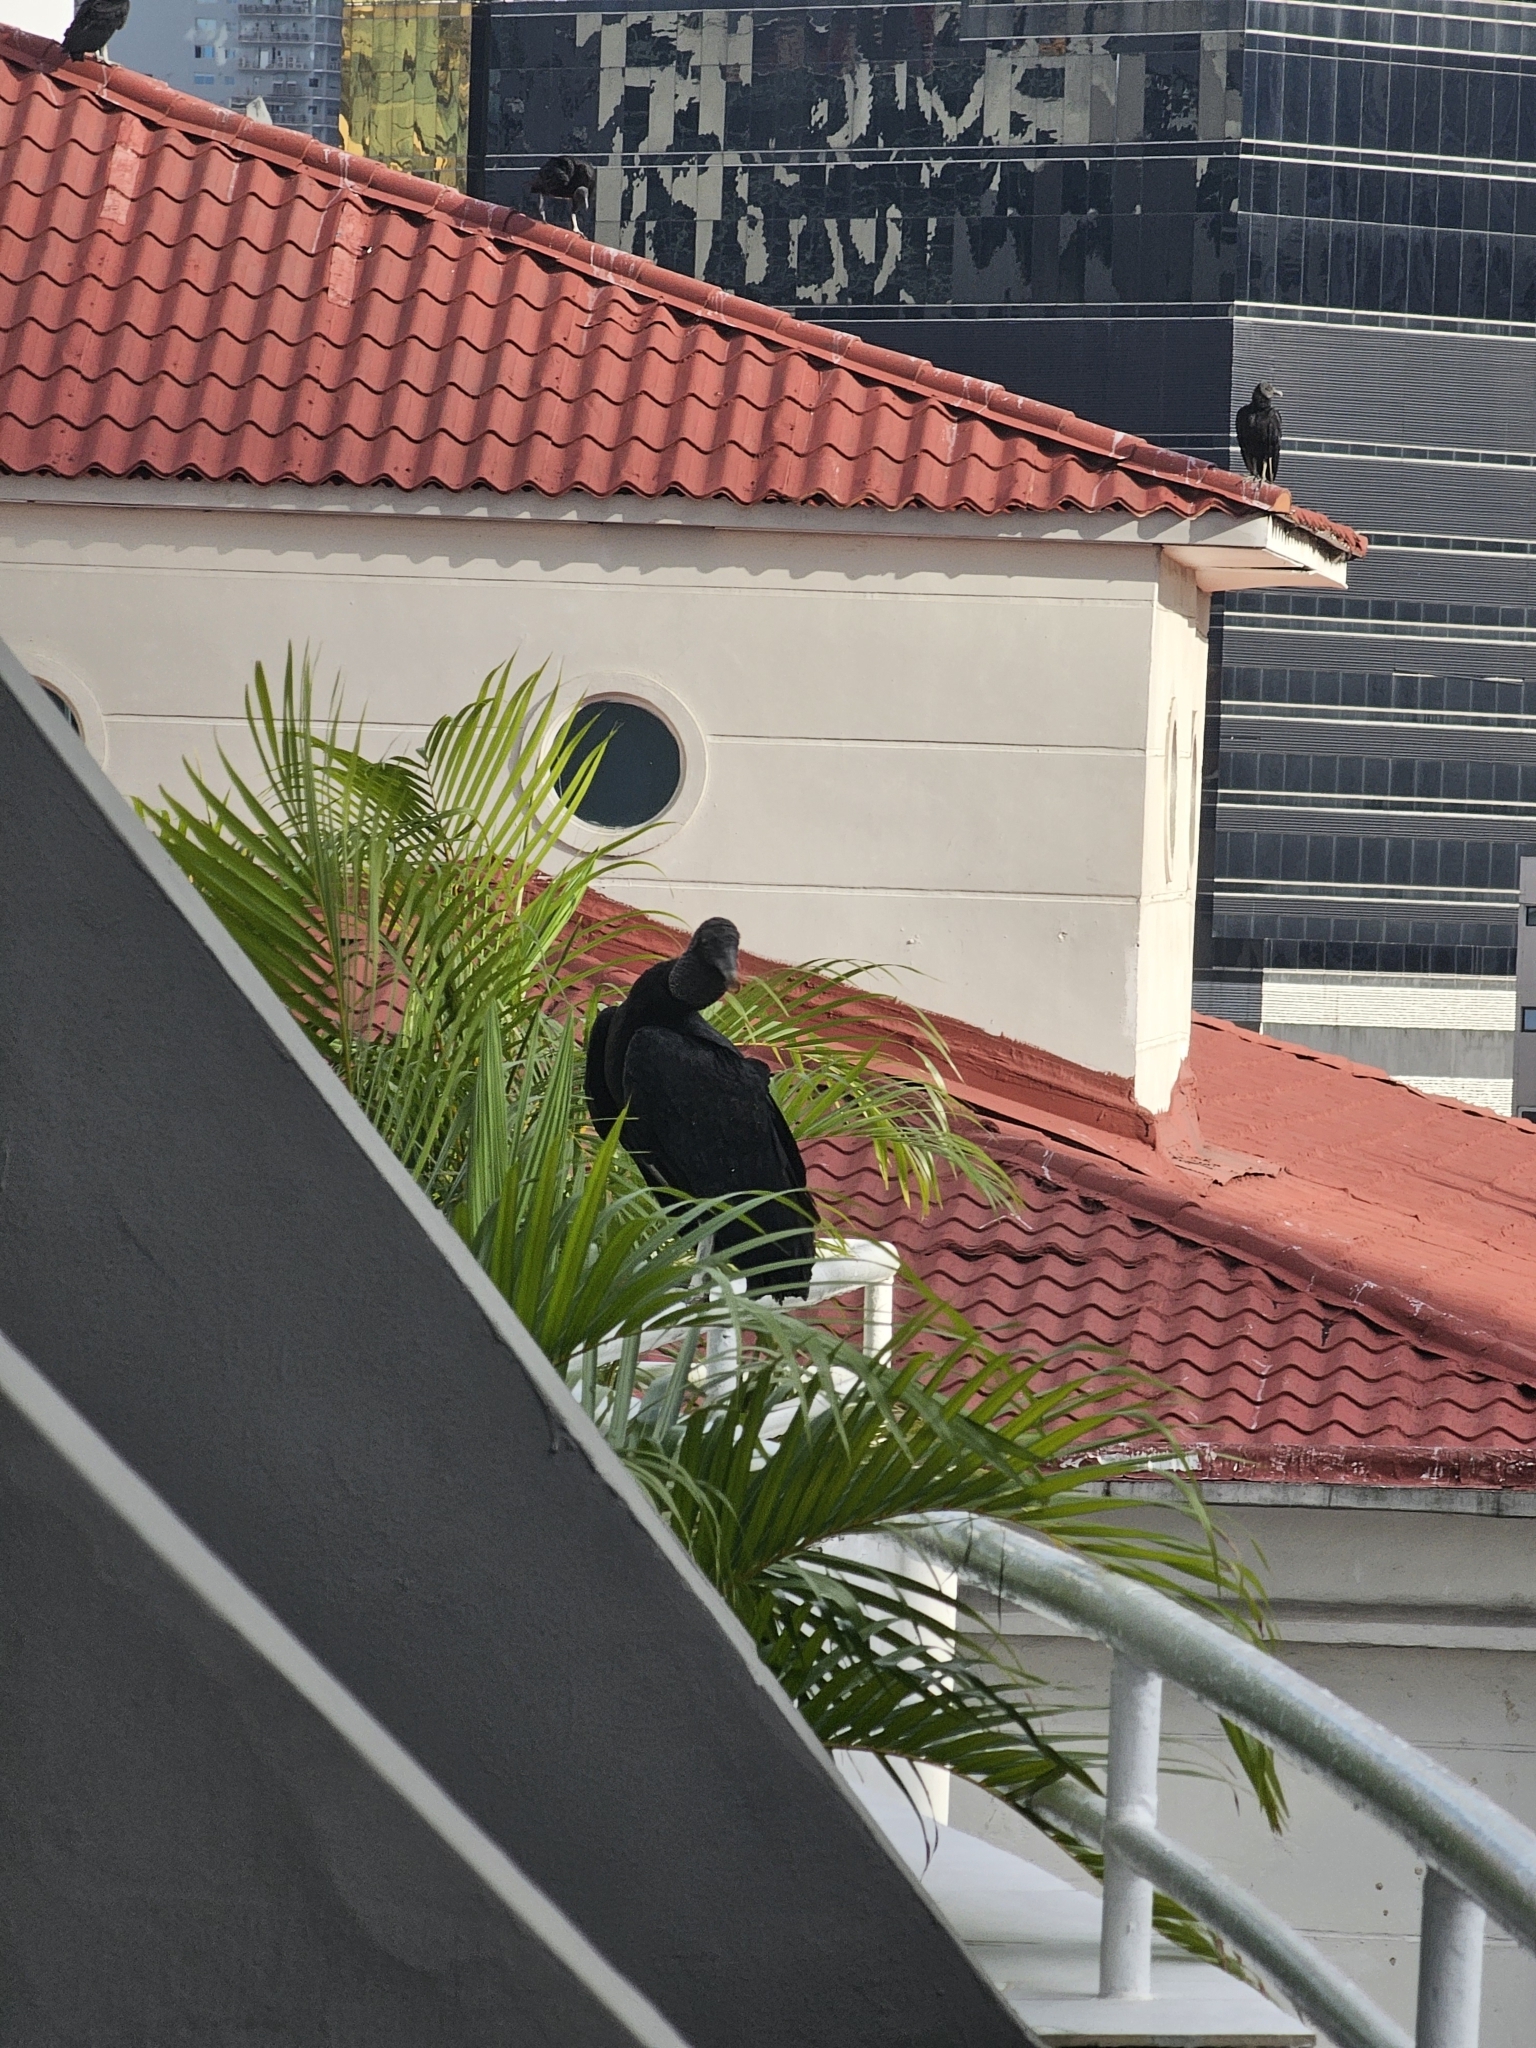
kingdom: Animalia
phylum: Chordata
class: Aves
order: Accipitriformes
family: Cathartidae
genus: Coragyps
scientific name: Coragyps atratus
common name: Black vulture
